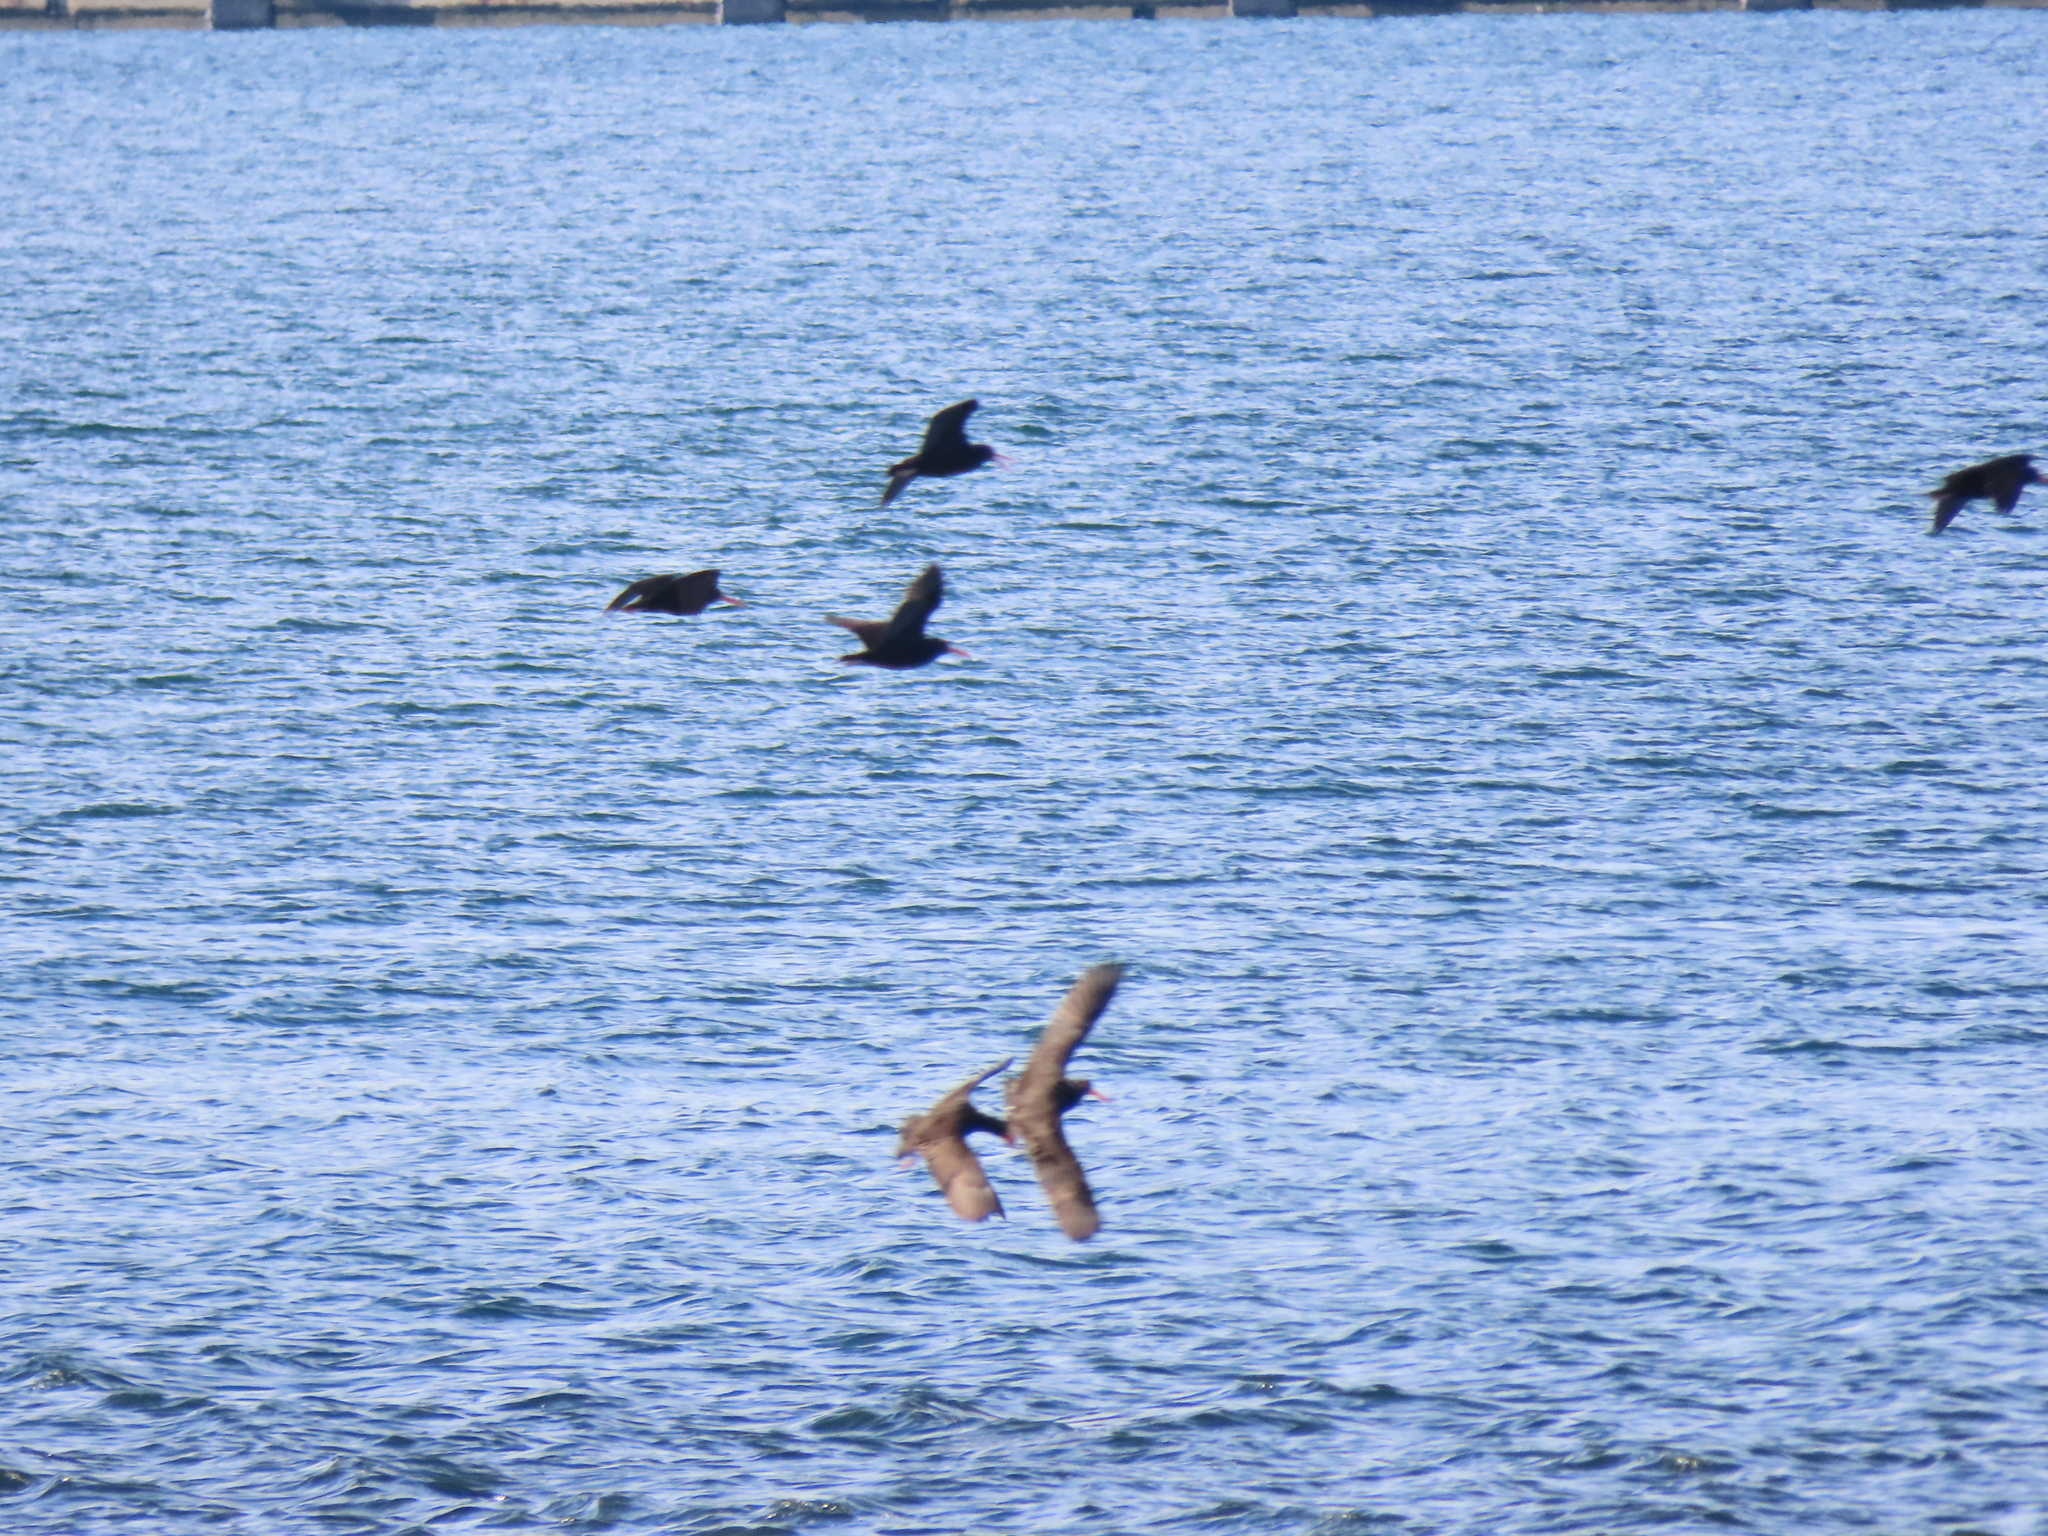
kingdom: Animalia
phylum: Chordata
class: Aves
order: Charadriiformes
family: Haematopodidae
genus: Haematopus
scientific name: Haematopus bachmani
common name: Black oystercatcher
